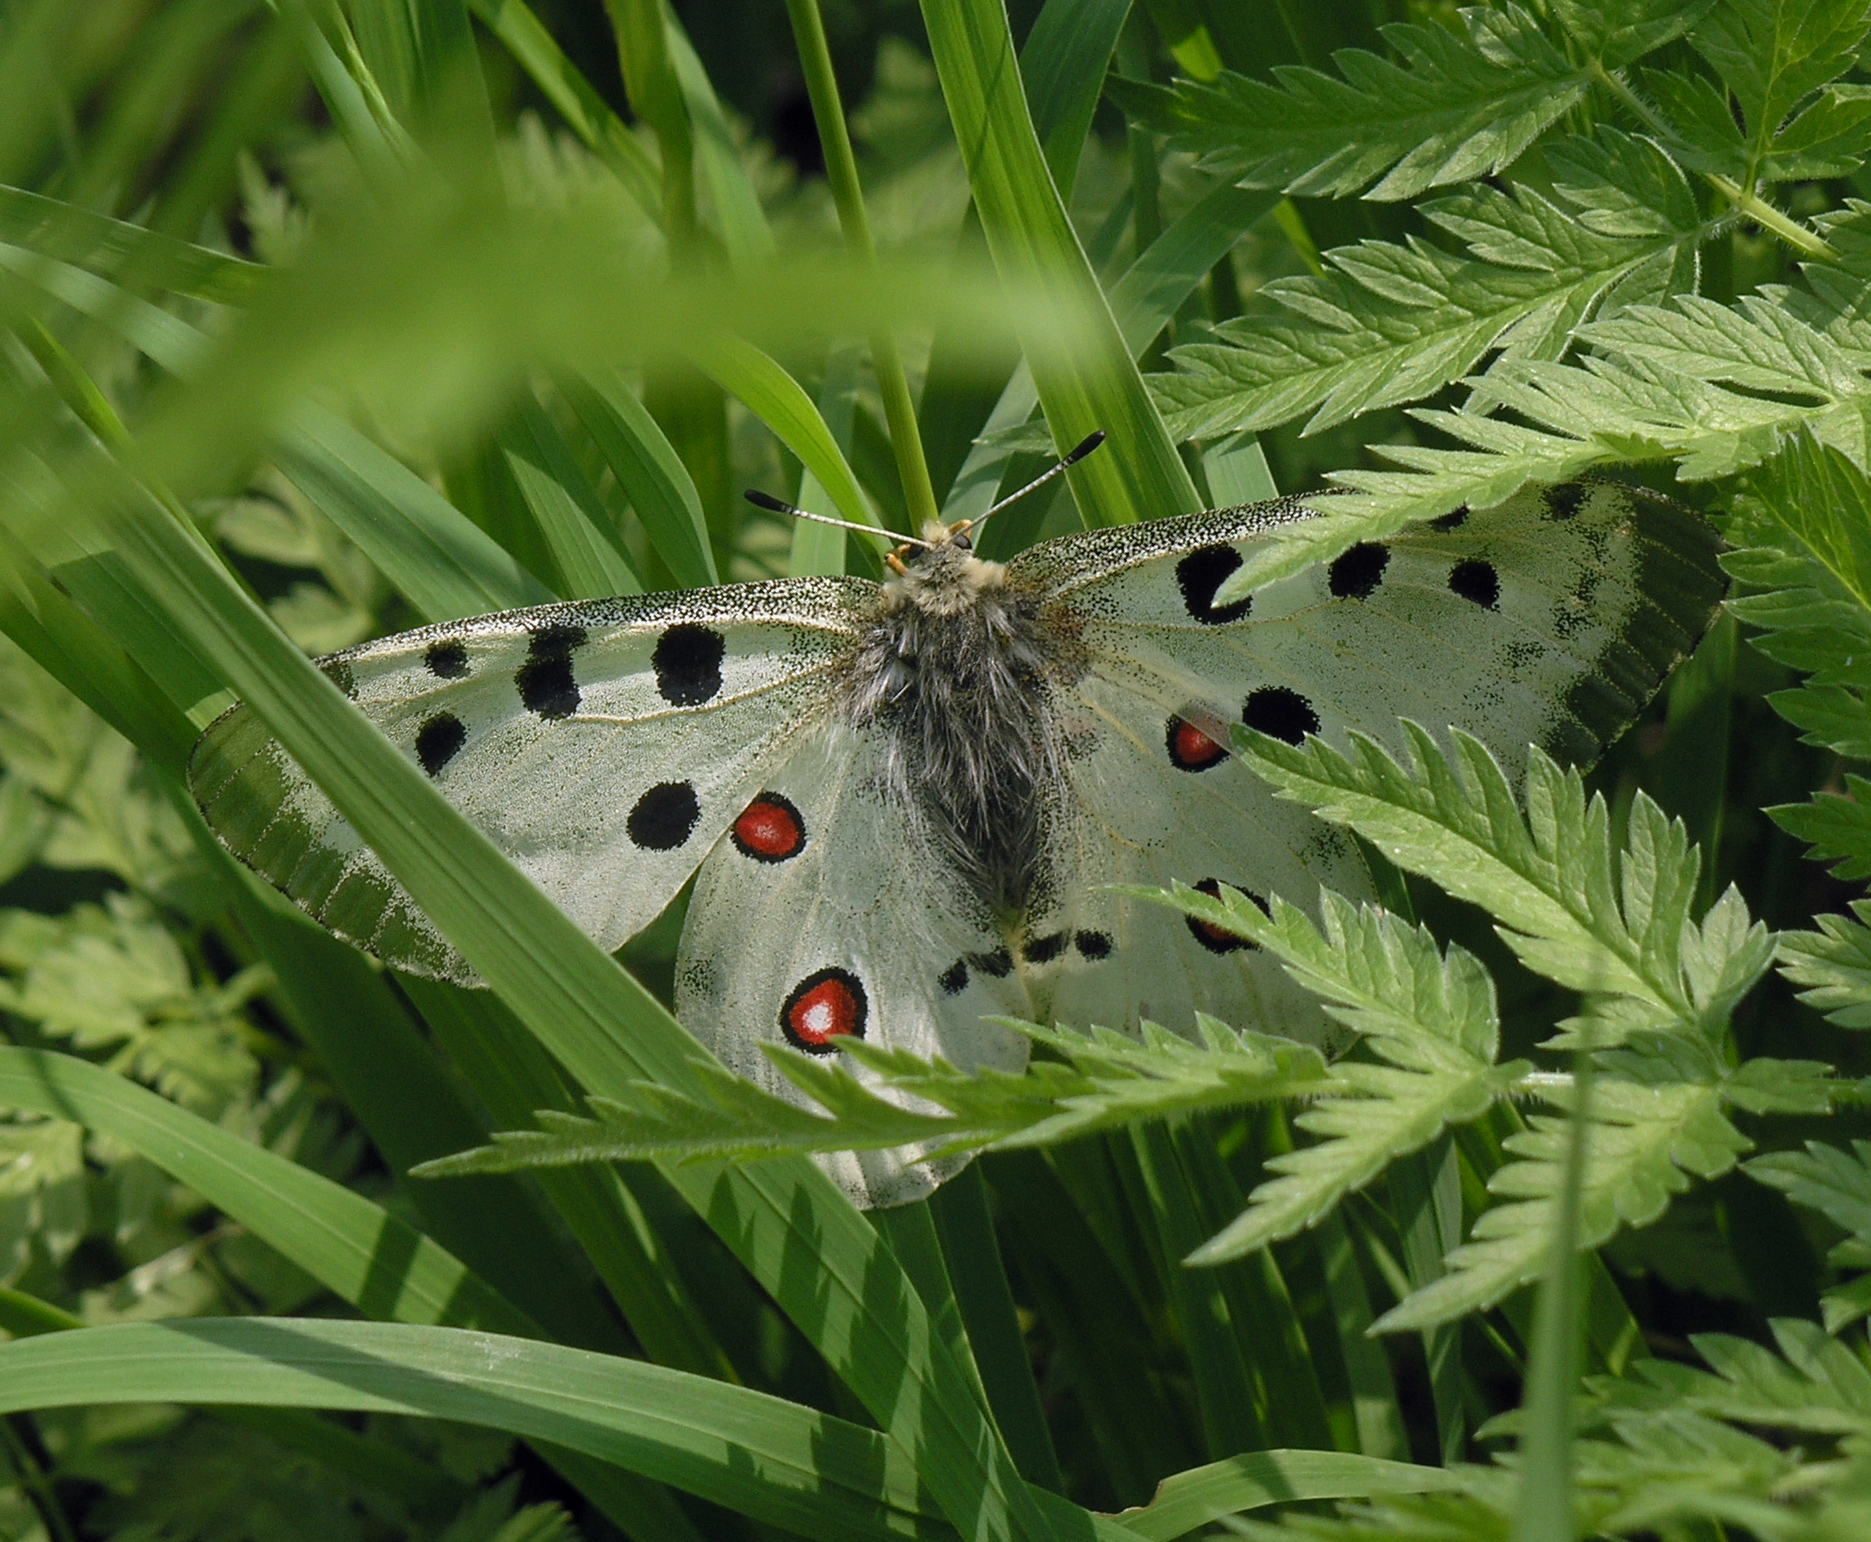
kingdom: Animalia
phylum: Arthropoda
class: Insecta
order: Lepidoptera
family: Papilionidae
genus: Parnassius
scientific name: Parnassius apollo
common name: Apollo
